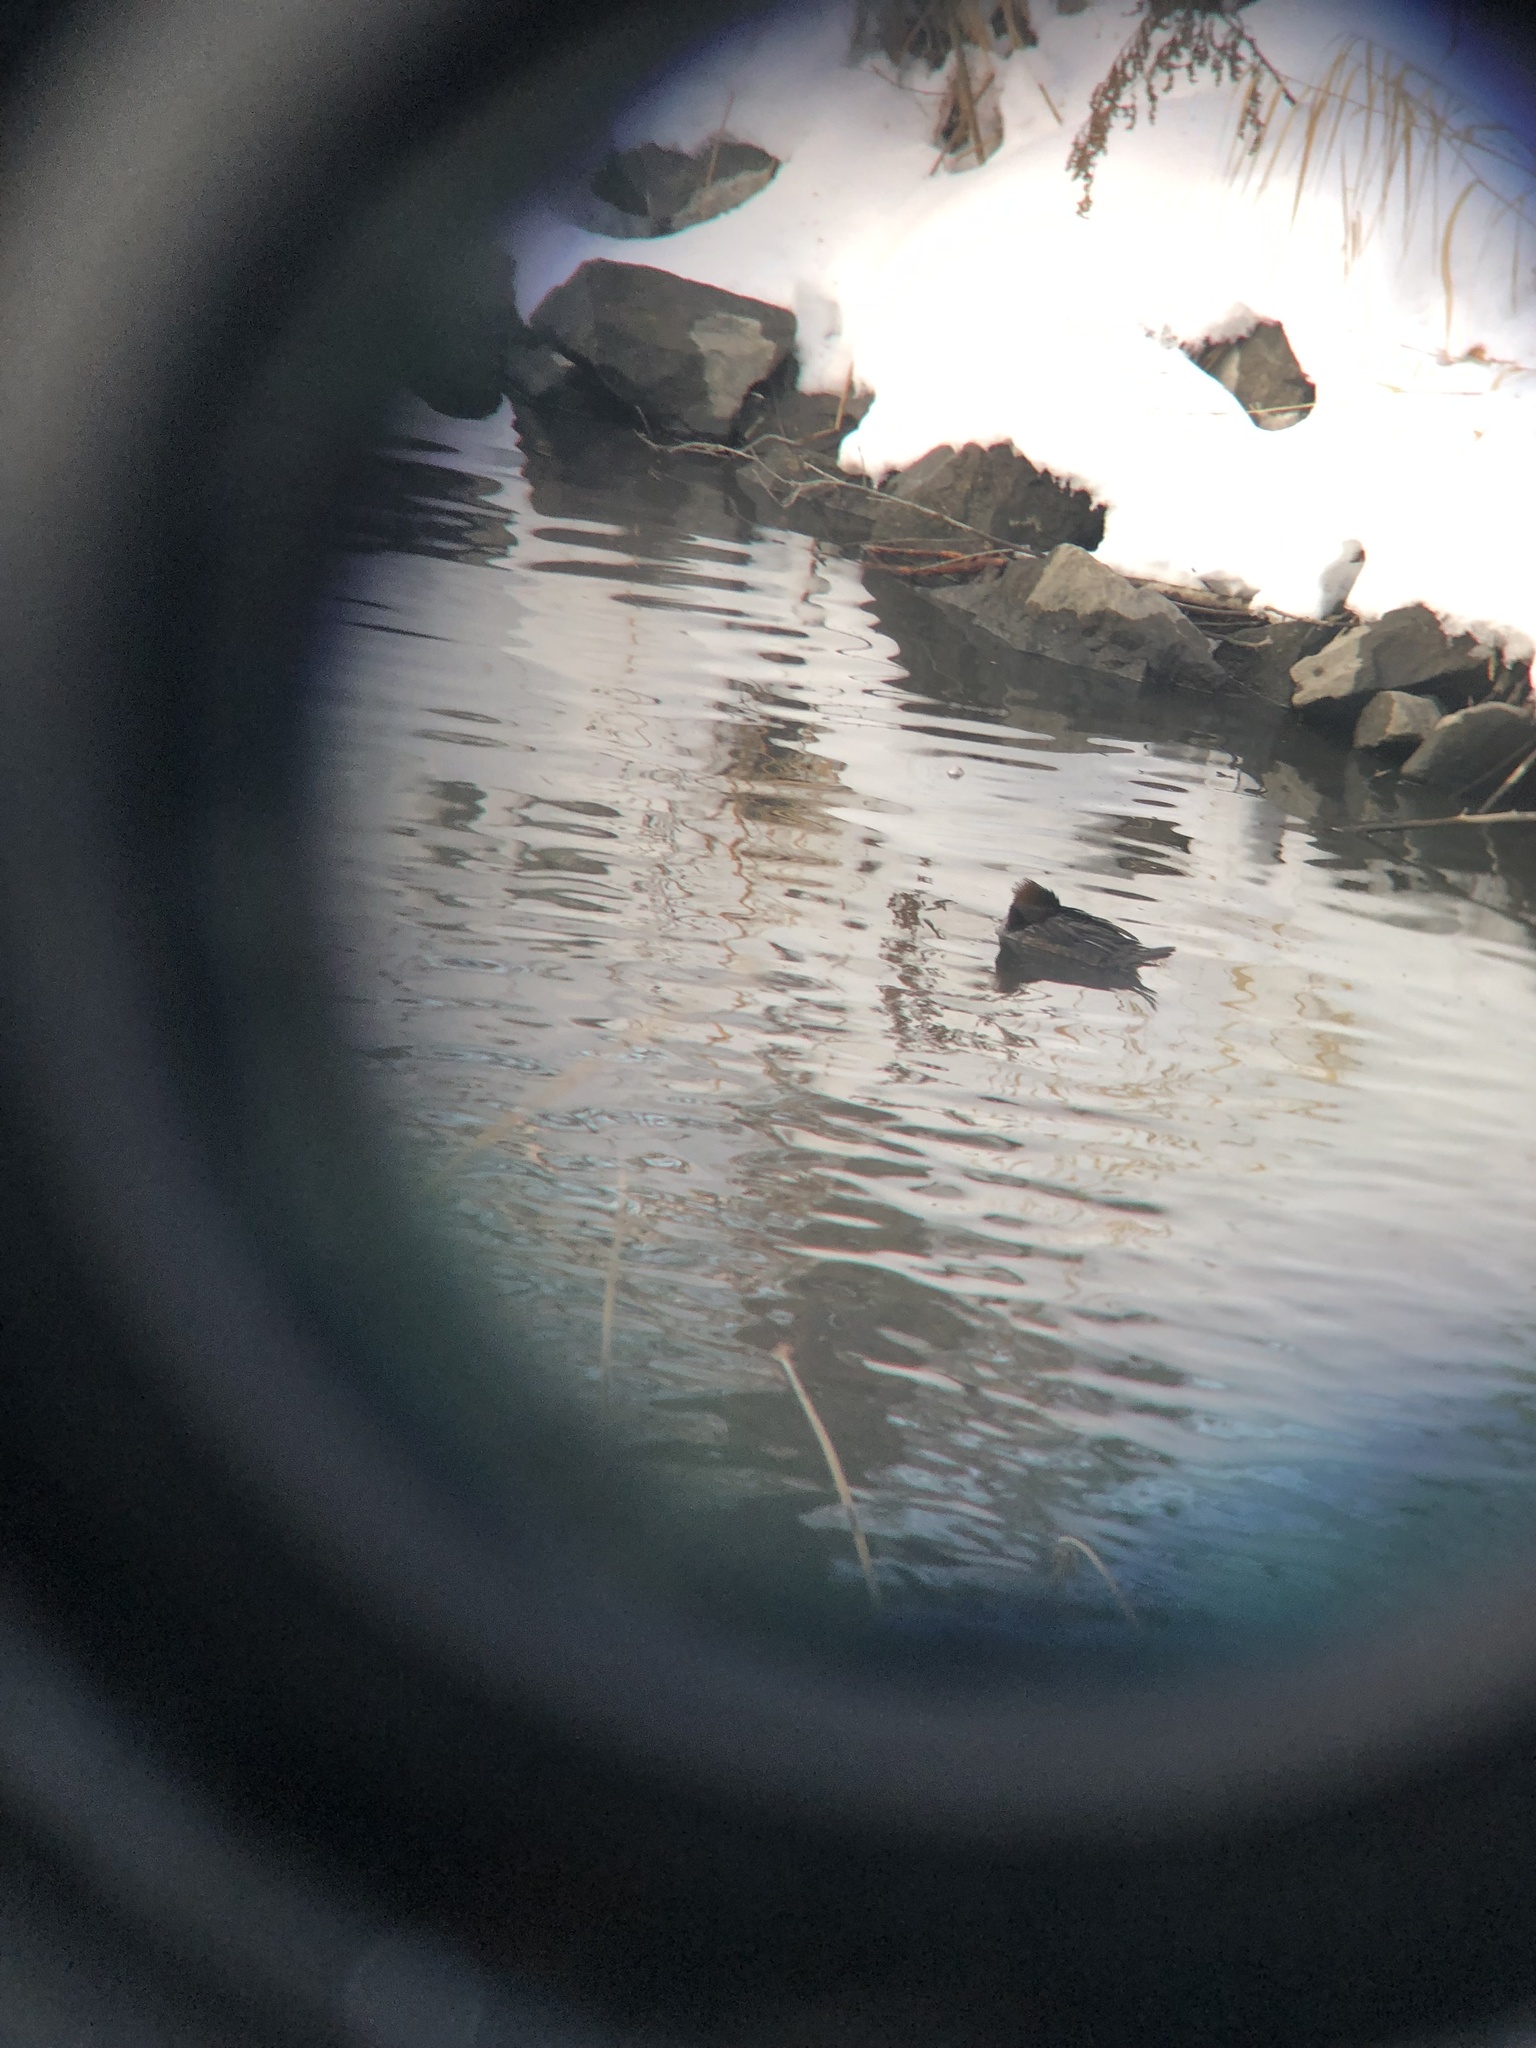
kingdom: Animalia
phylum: Chordata
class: Aves
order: Anseriformes
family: Anatidae
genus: Lophodytes
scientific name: Lophodytes cucullatus
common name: Hooded merganser
